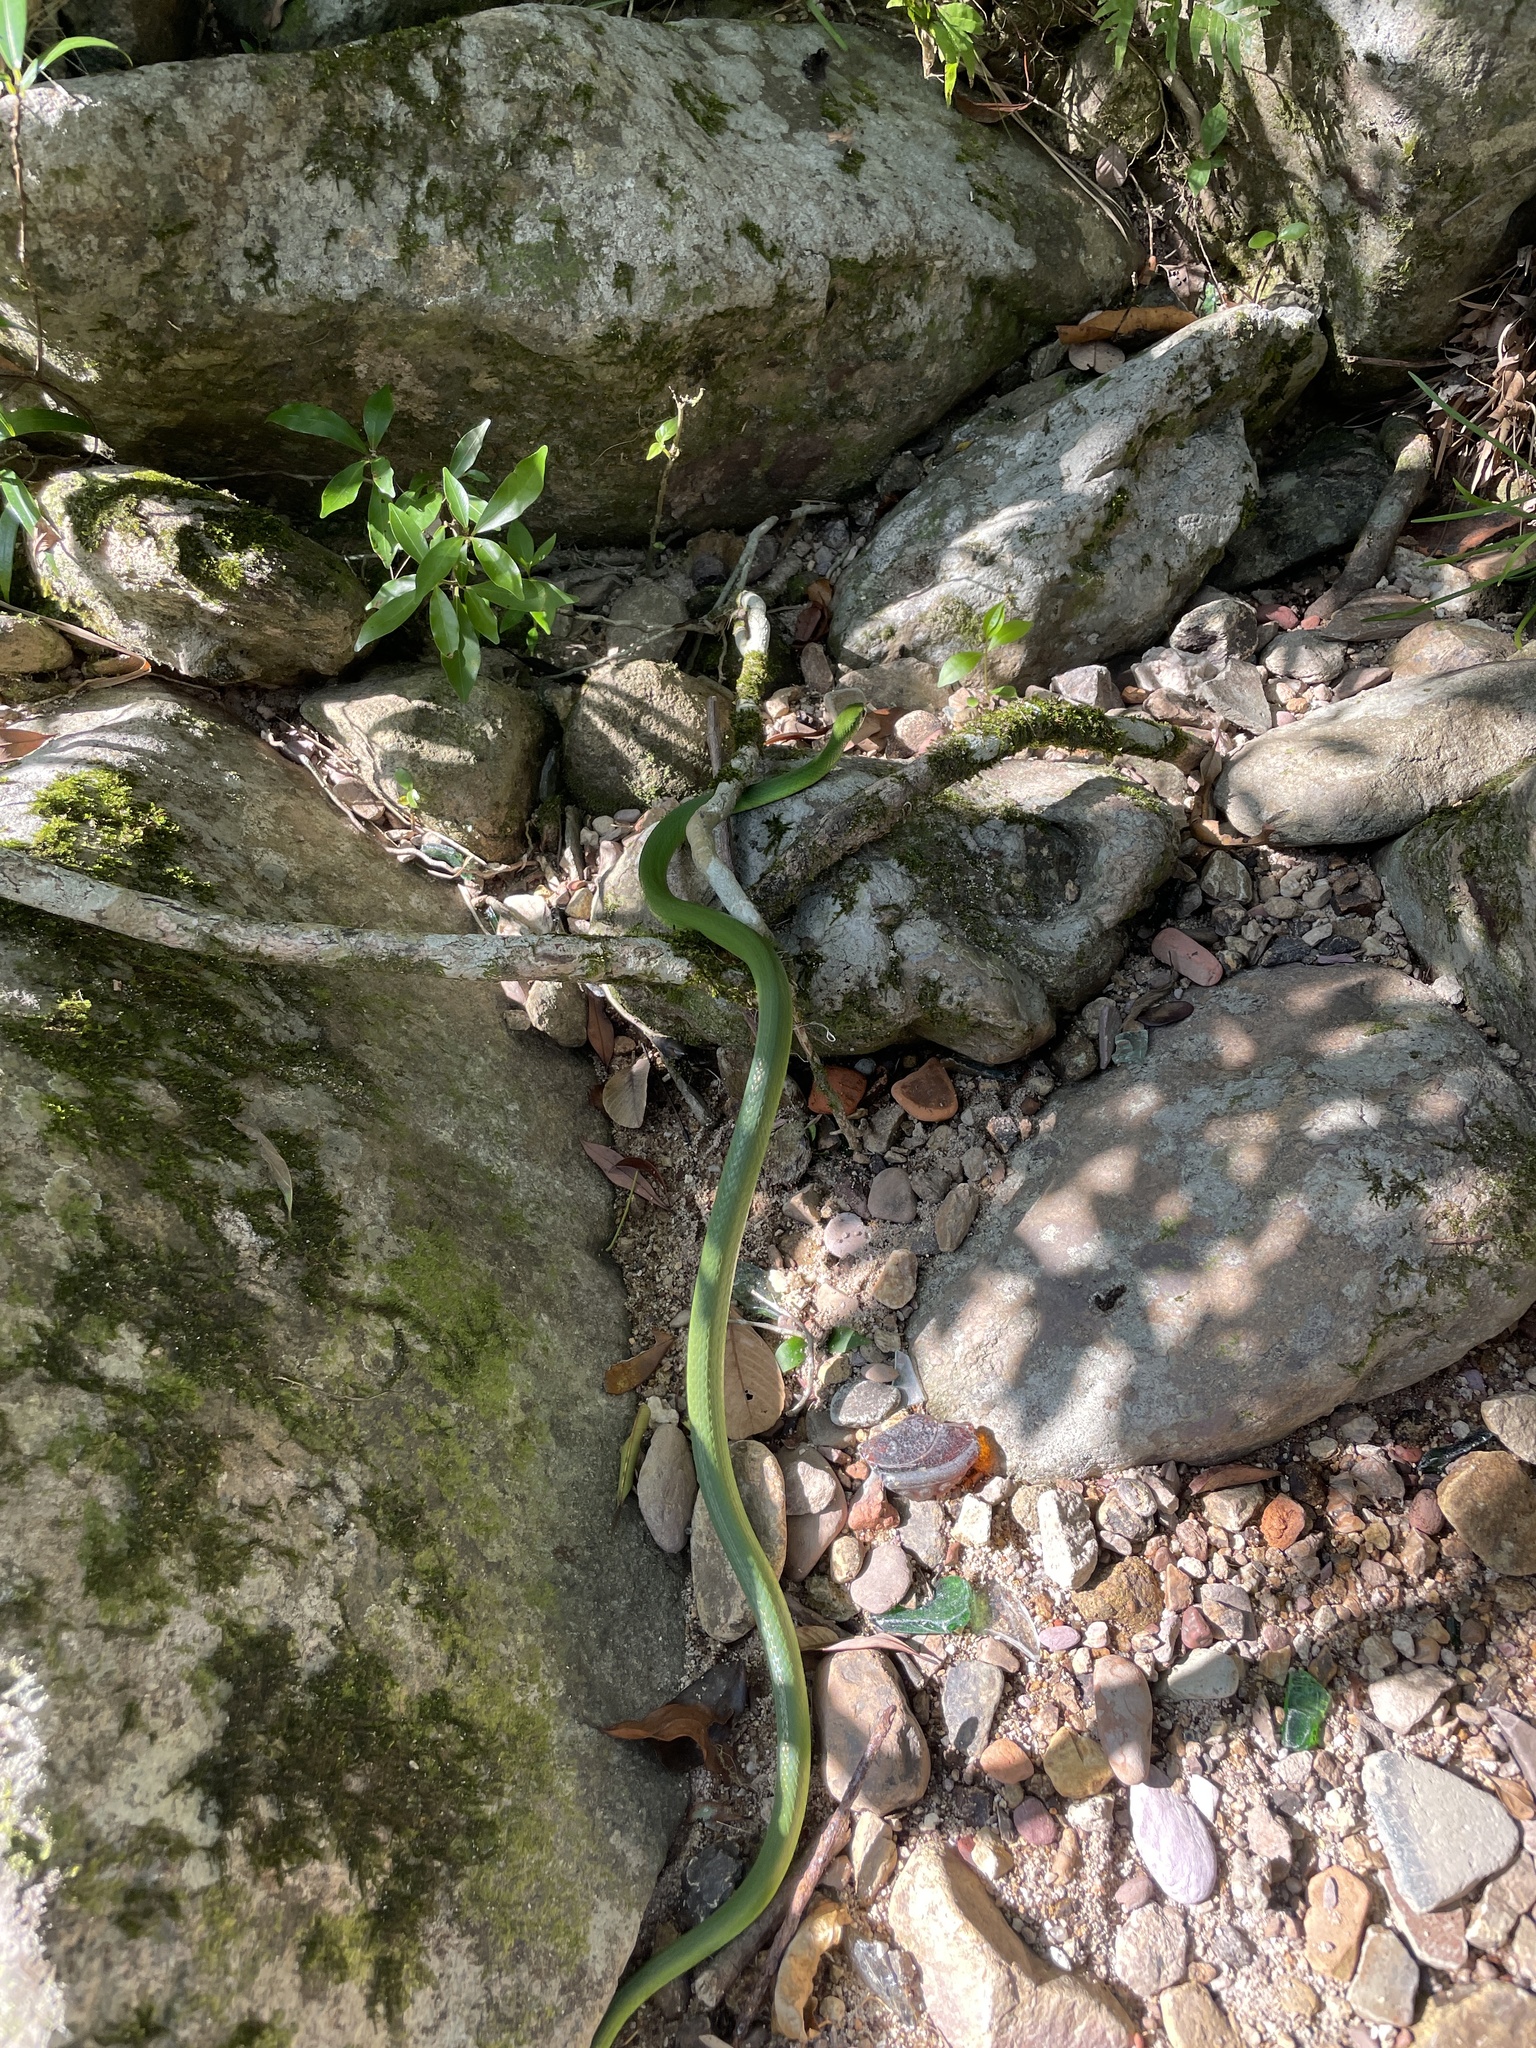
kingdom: Animalia
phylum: Chordata
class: Squamata
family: Colubridae
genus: Ptyas
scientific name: Ptyas major
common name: Chinese green snake
